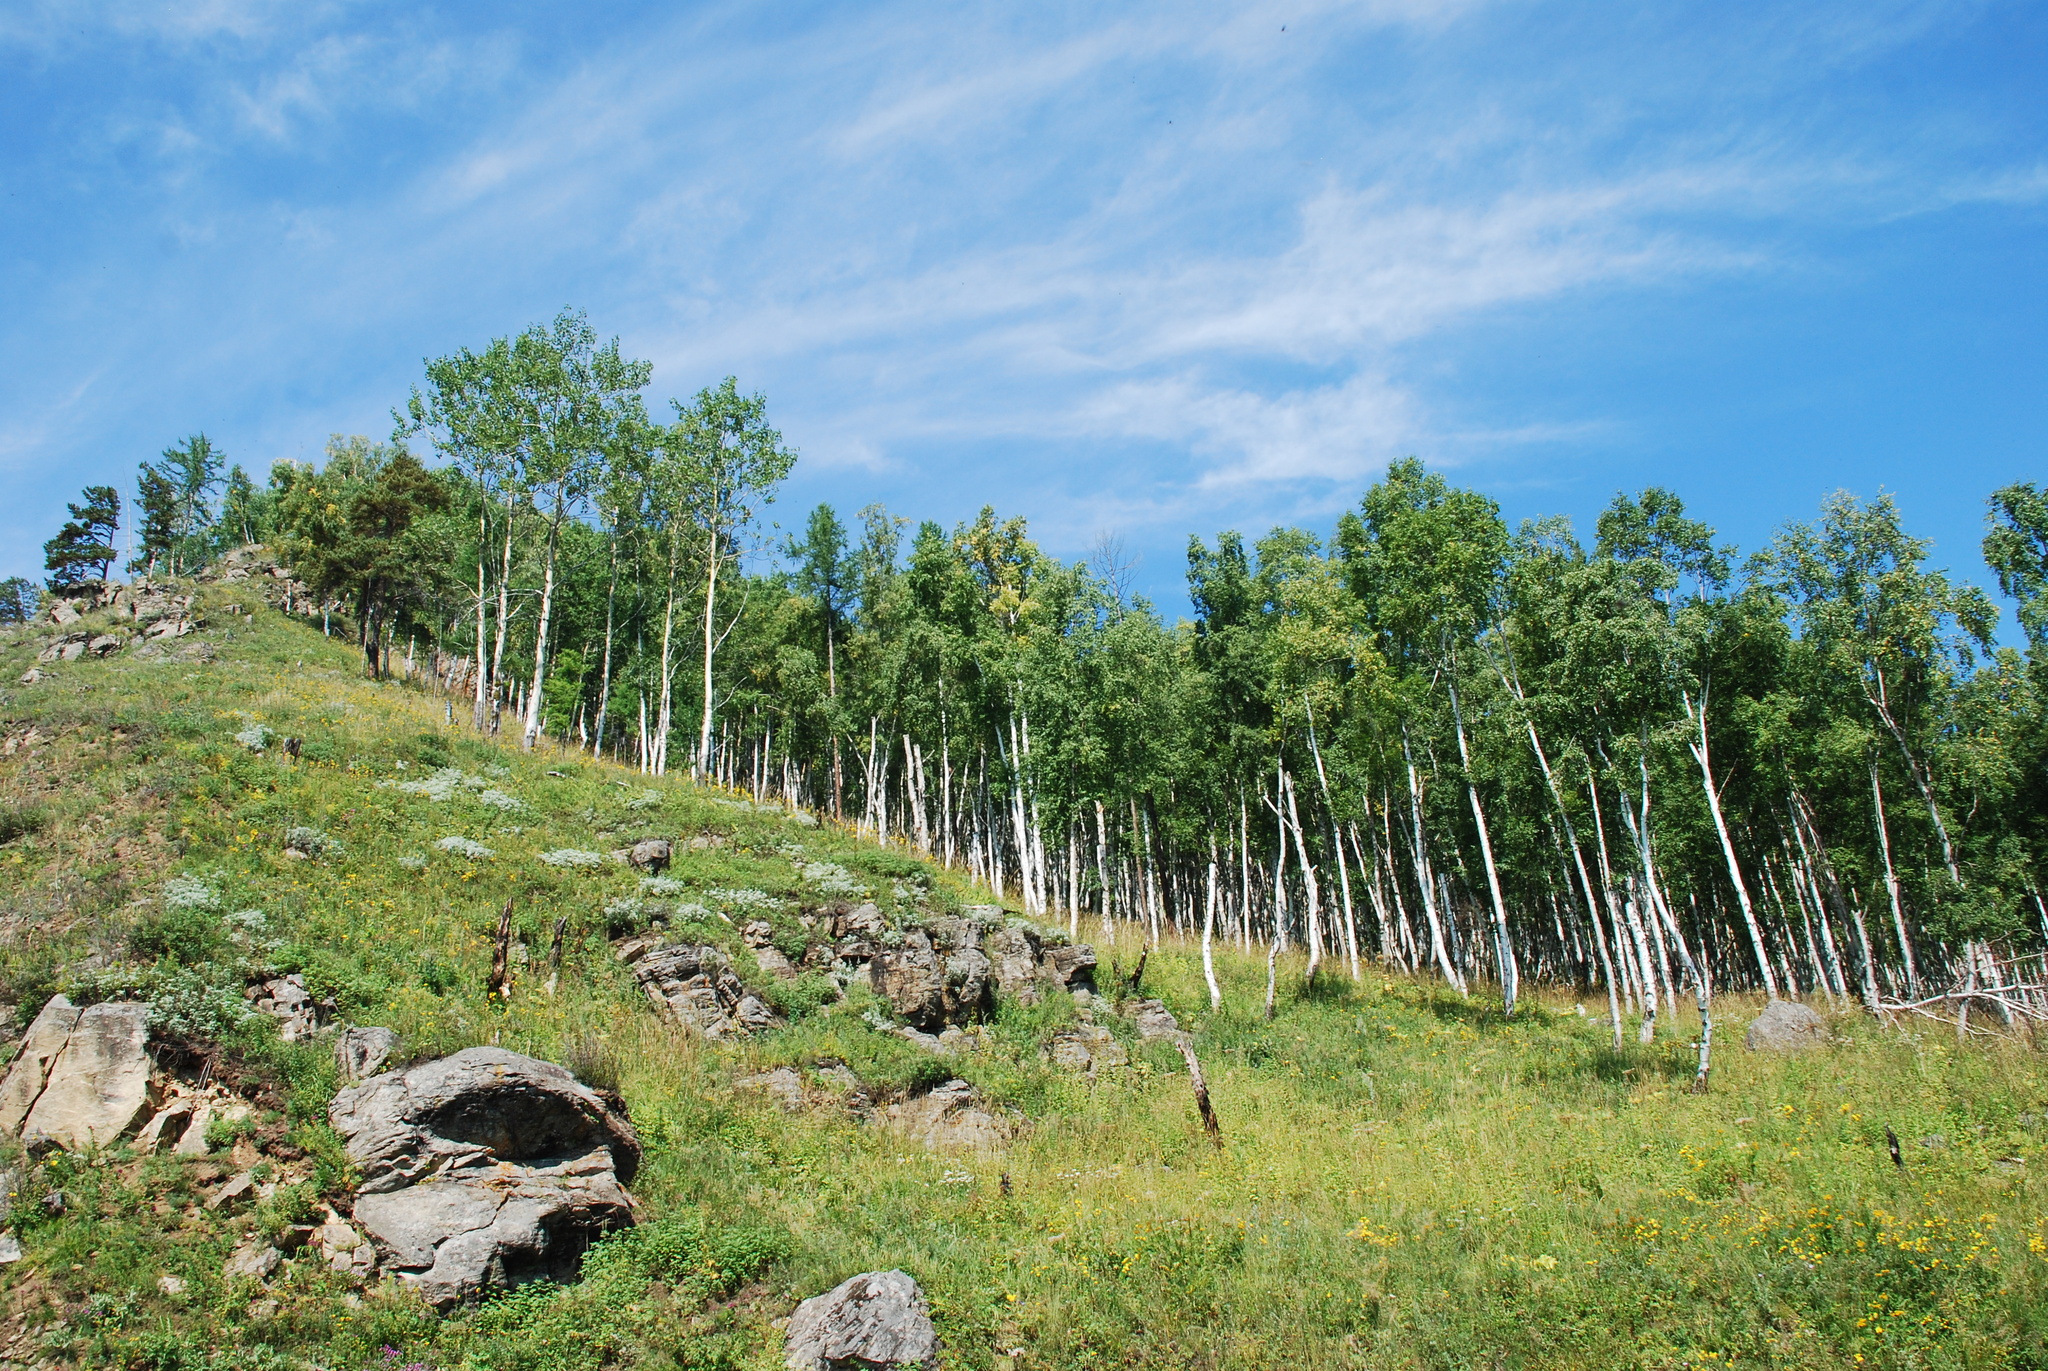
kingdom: Plantae
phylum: Tracheophyta
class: Magnoliopsida
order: Malpighiales
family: Salicaceae
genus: Populus
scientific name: Populus tremula
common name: European aspen
